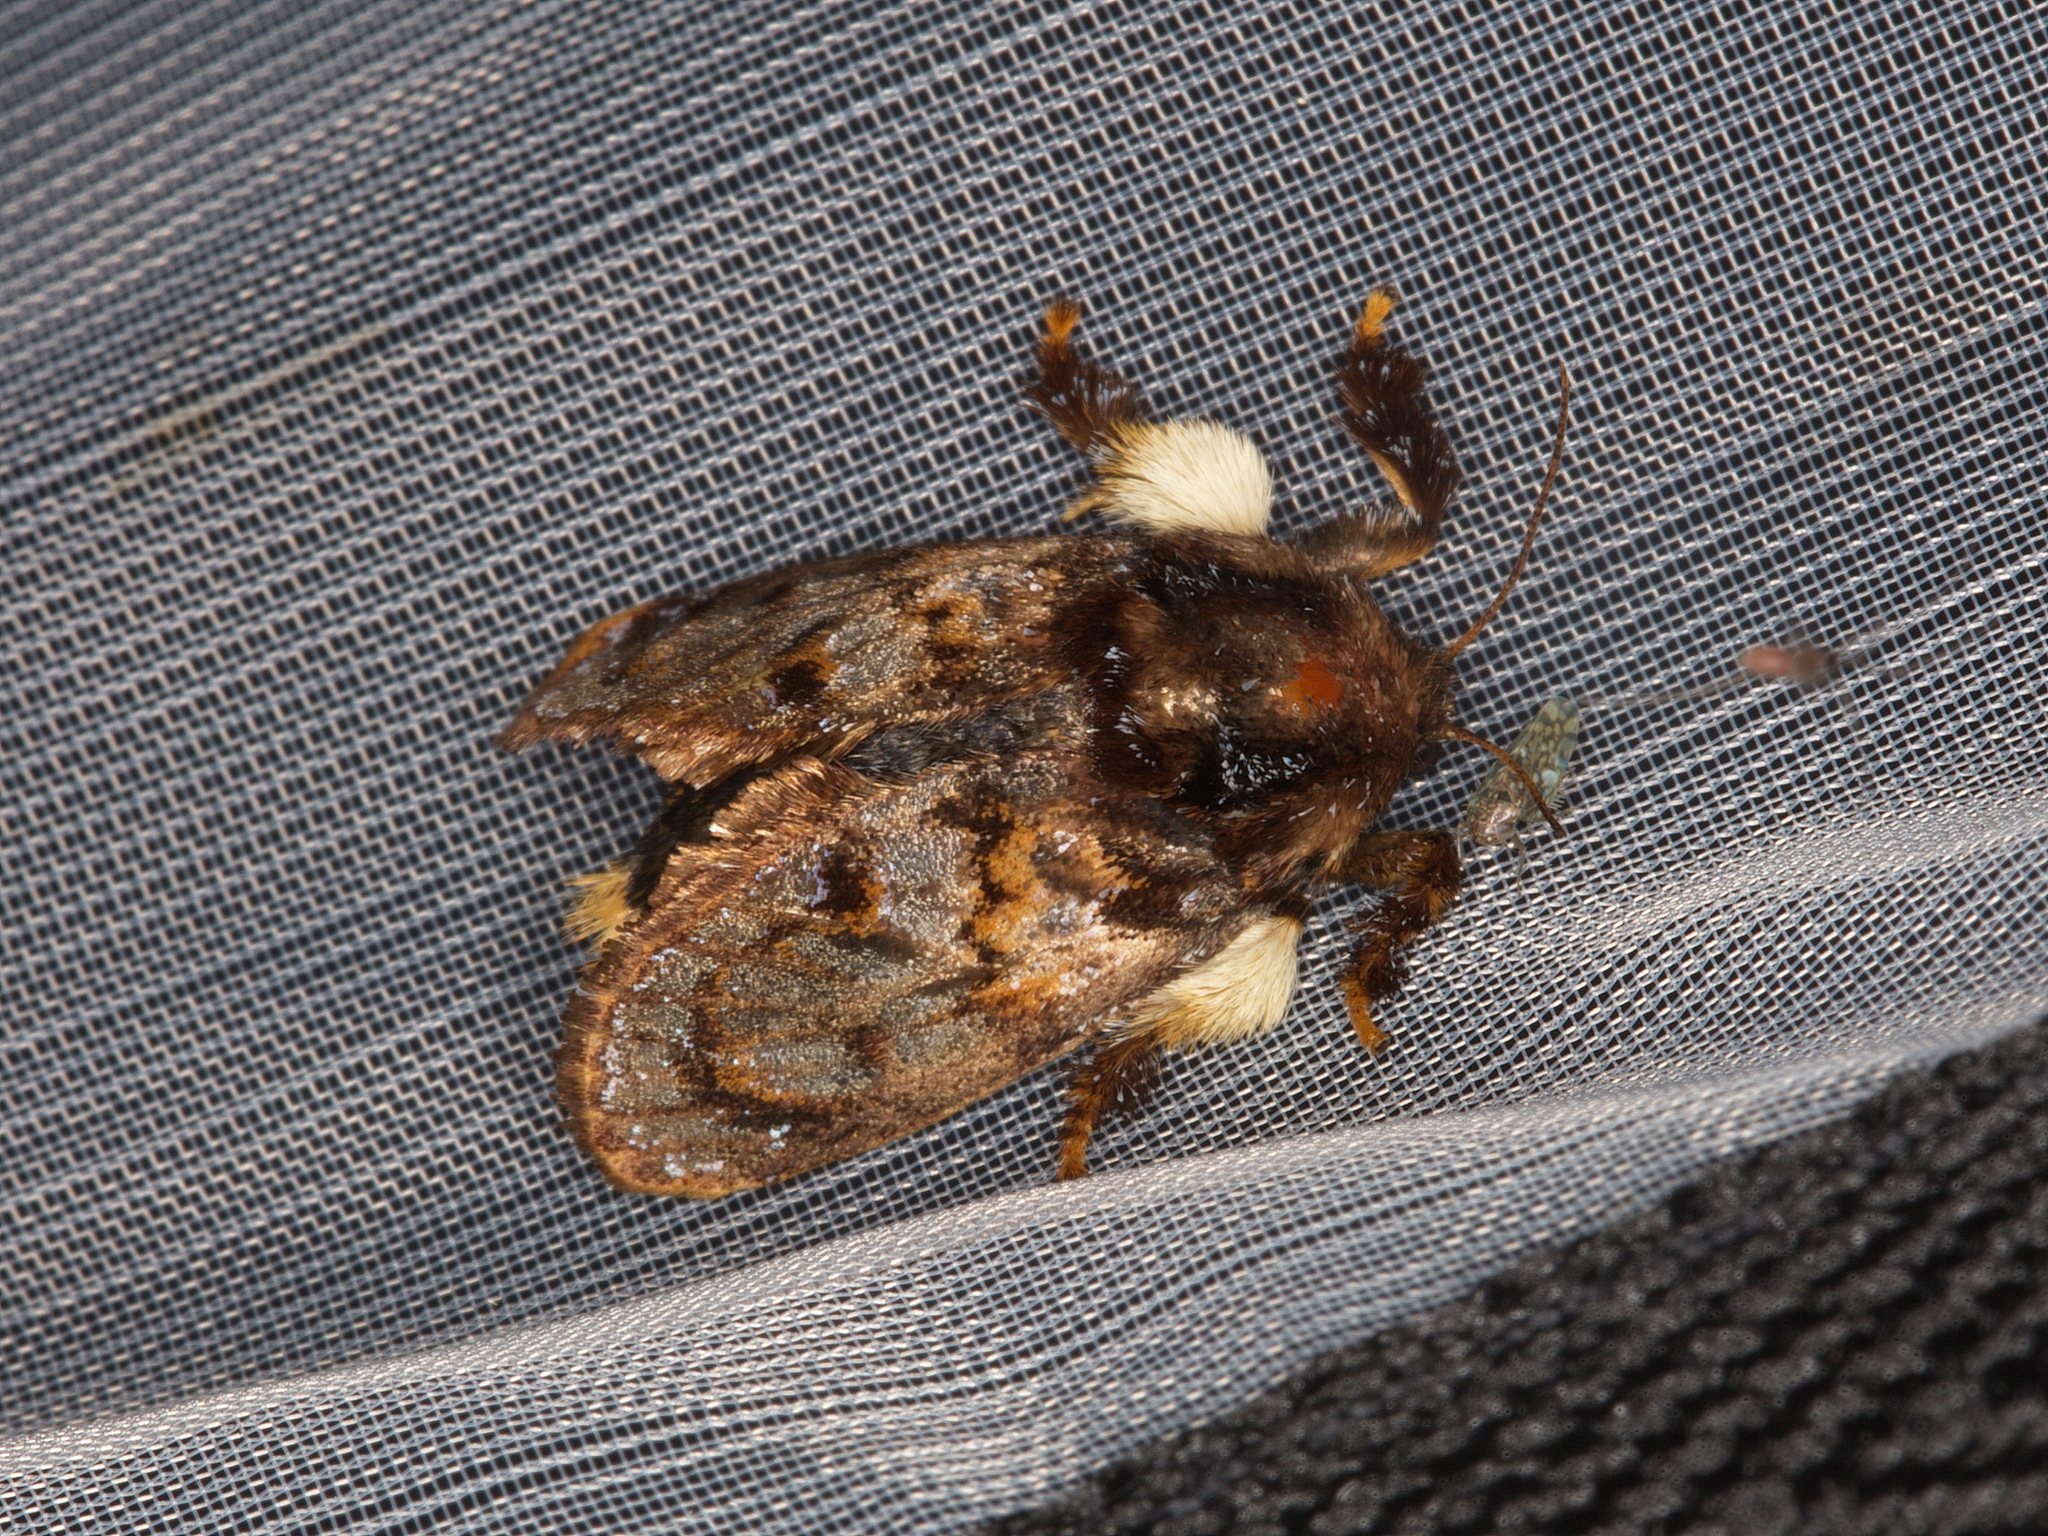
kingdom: Animalia
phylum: Arthropoda
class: Insecta
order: Lepidoptera
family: Limacodidae
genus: Phobetron
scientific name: Phobetron pithecium
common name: Hag moth
